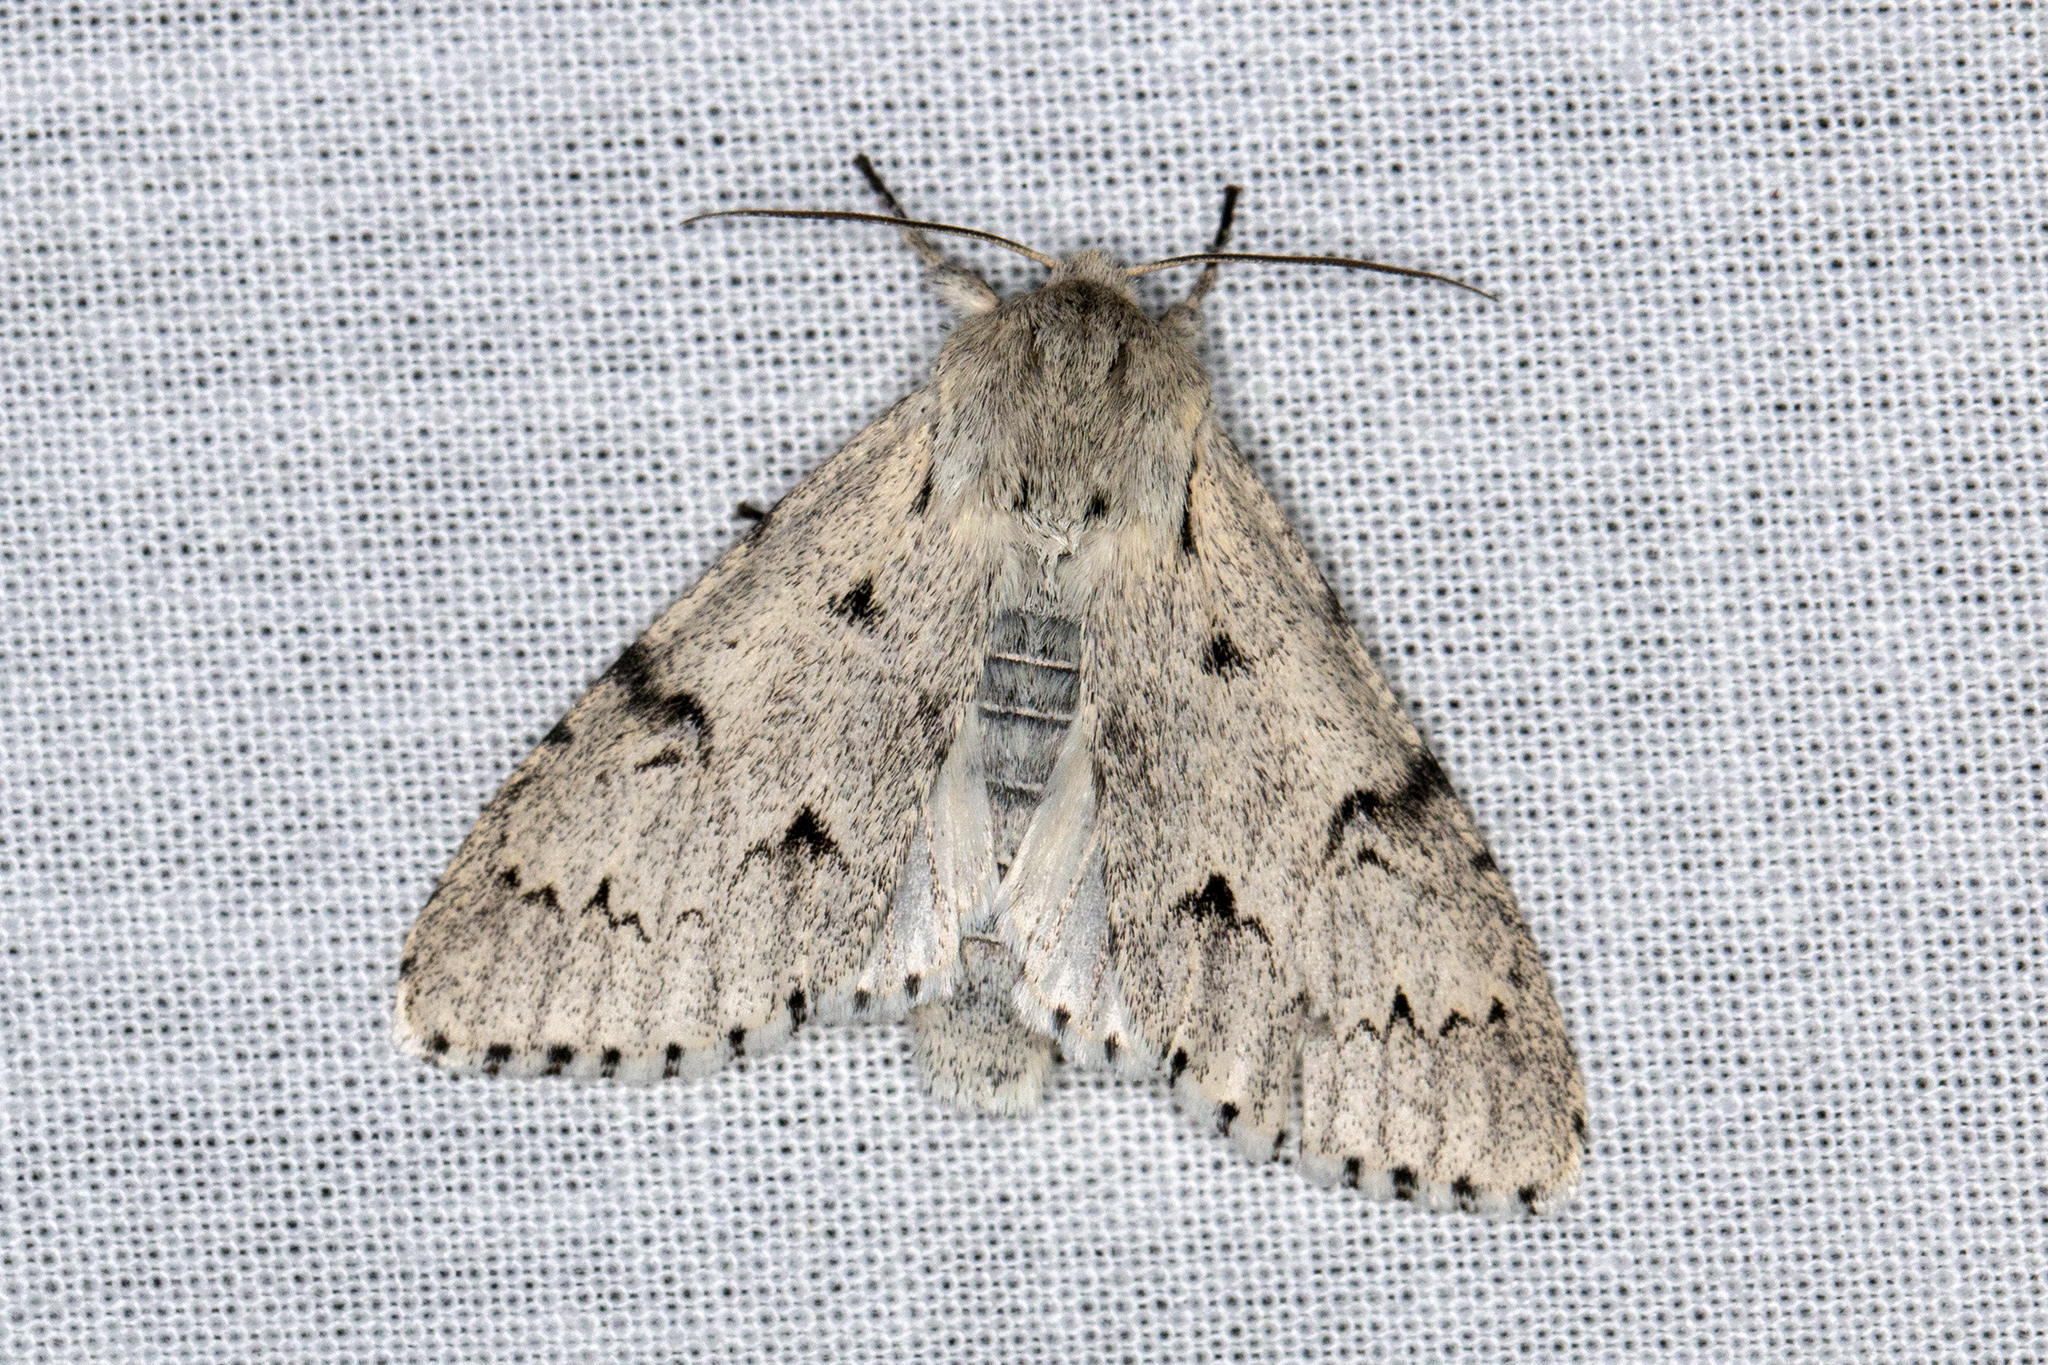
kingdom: Animalia
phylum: Arthropoda
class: Insecta
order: Lepidoptera
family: Noctuidae
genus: Acronicta
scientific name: Acronicta leporina
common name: Miller
